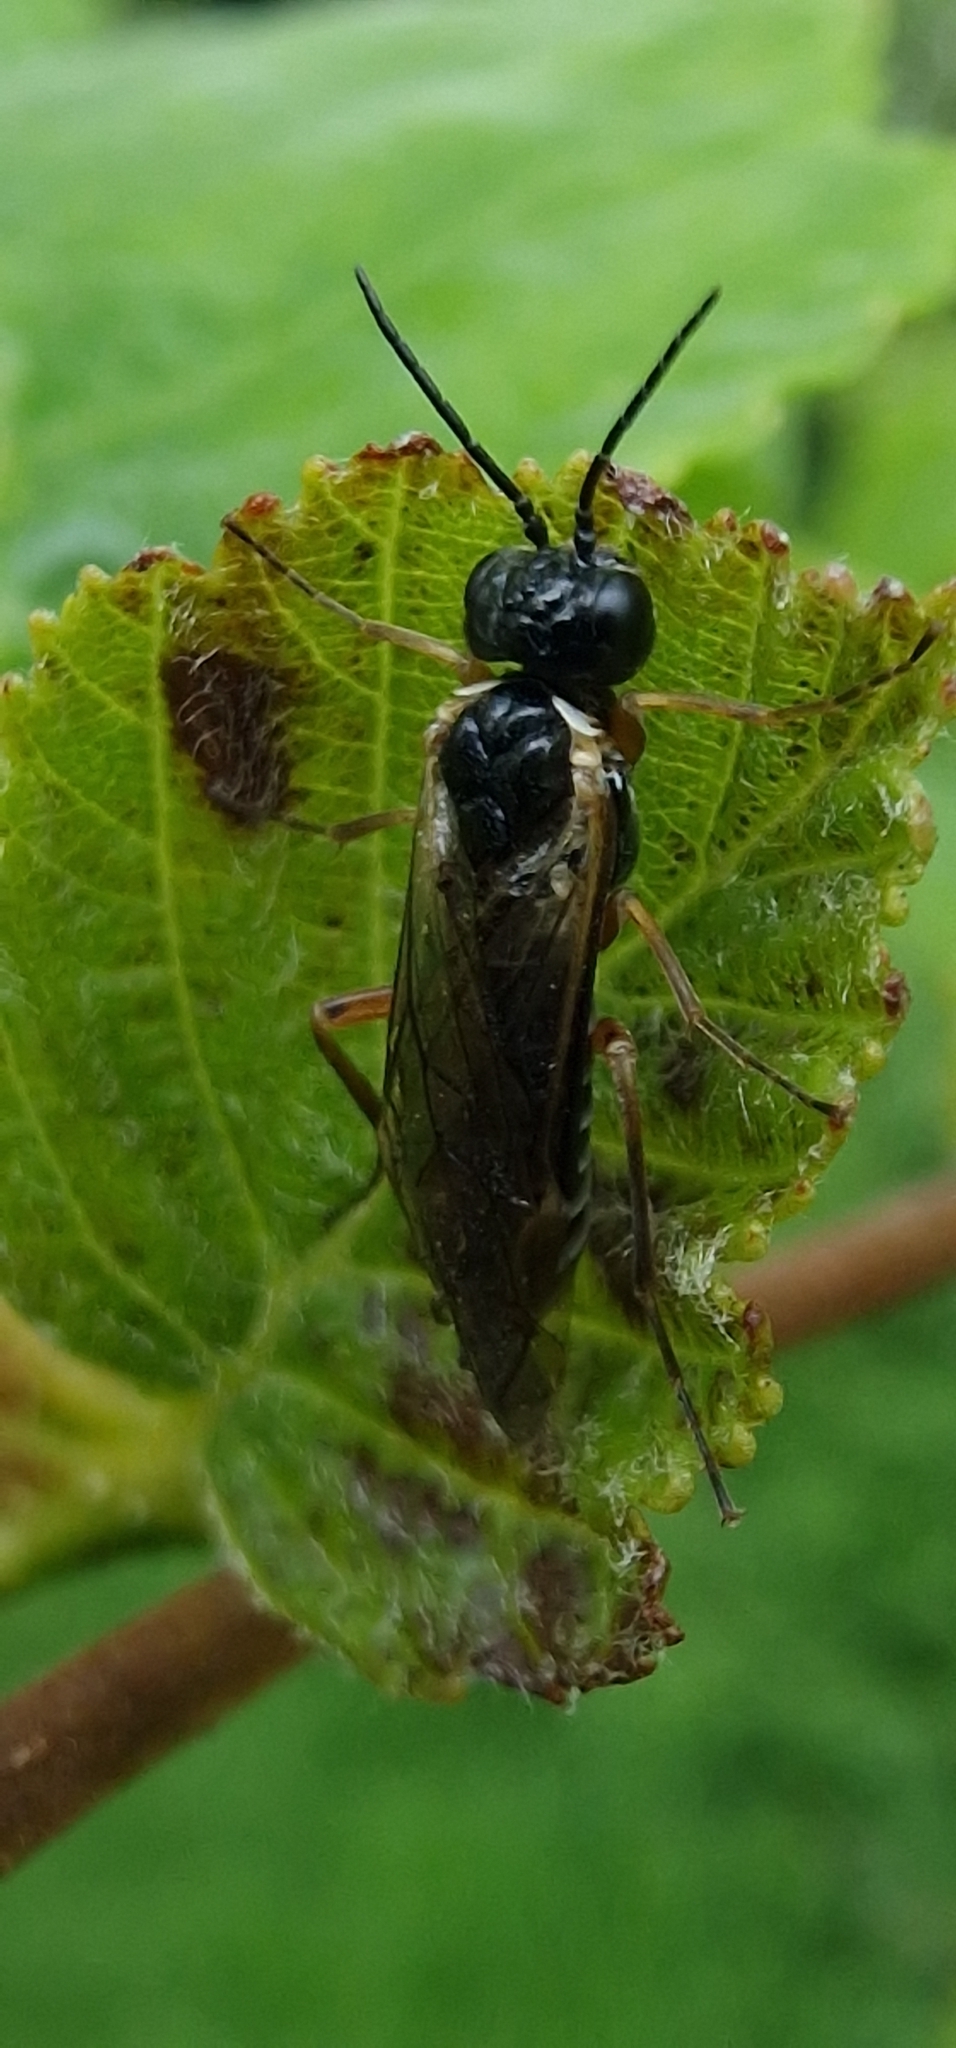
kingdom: Animalia
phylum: Arthropoda
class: Insecta
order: Hymenoptera
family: Tenthredinidae
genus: Monsoma
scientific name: Monsoma pulveratum
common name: Green alder sawfly
